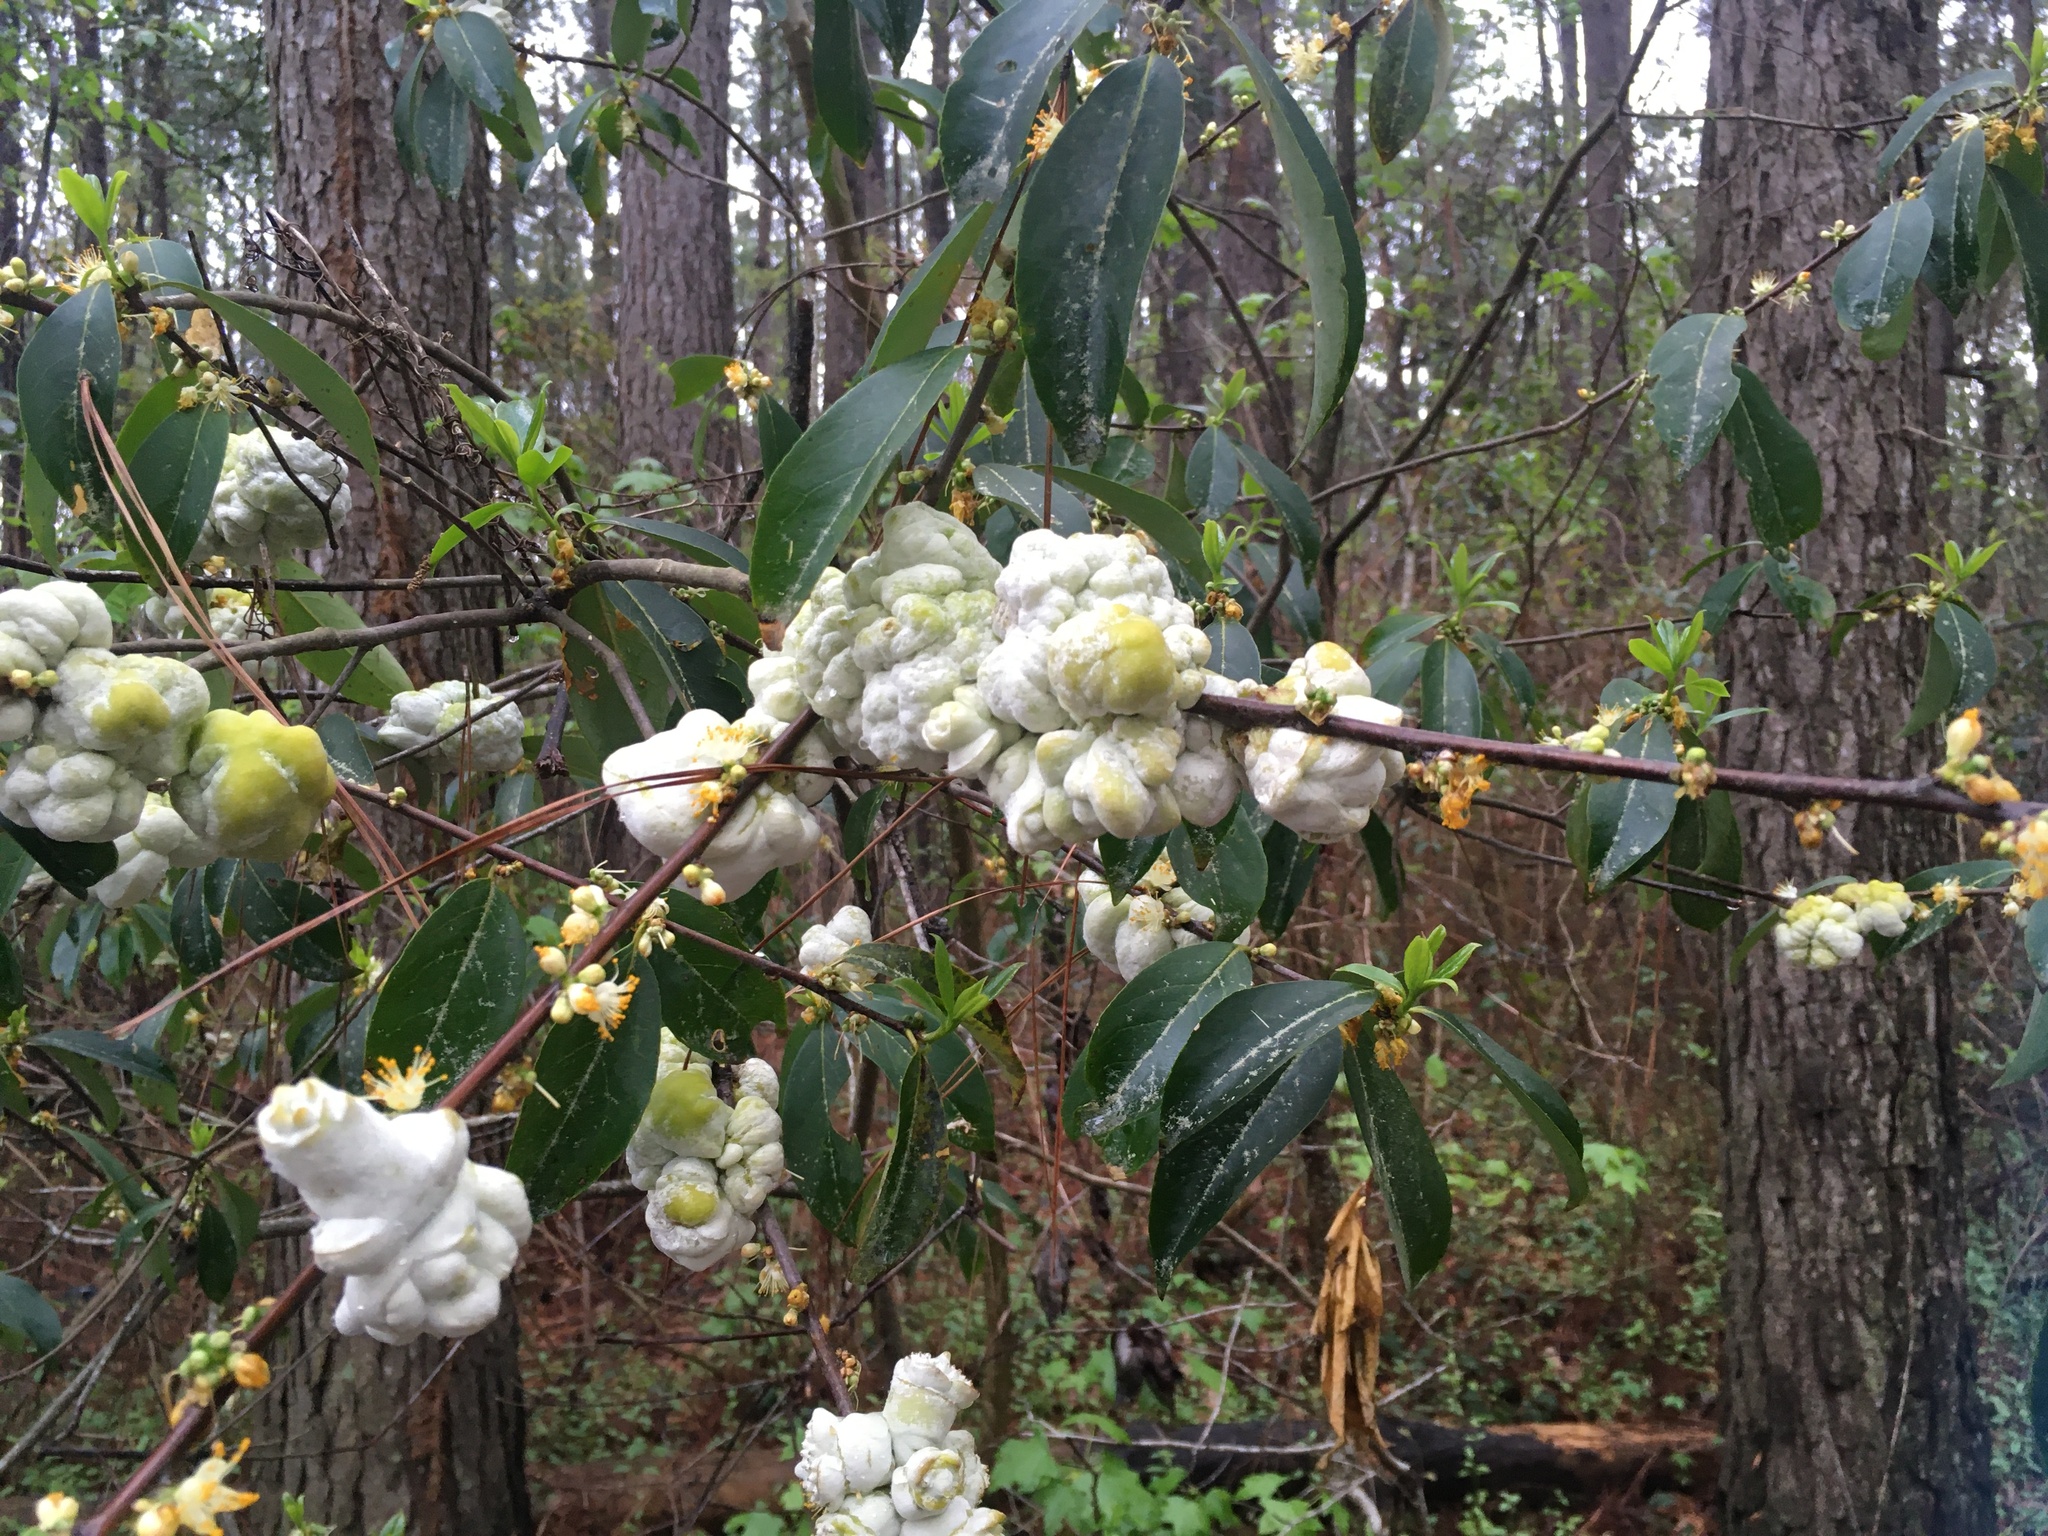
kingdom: Fungi
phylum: Basidiomycota
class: Exobasidiomycetes
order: Exobasidiales
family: Exobasidiaceae
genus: Exobasidium
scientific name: Exobasidium symploci
